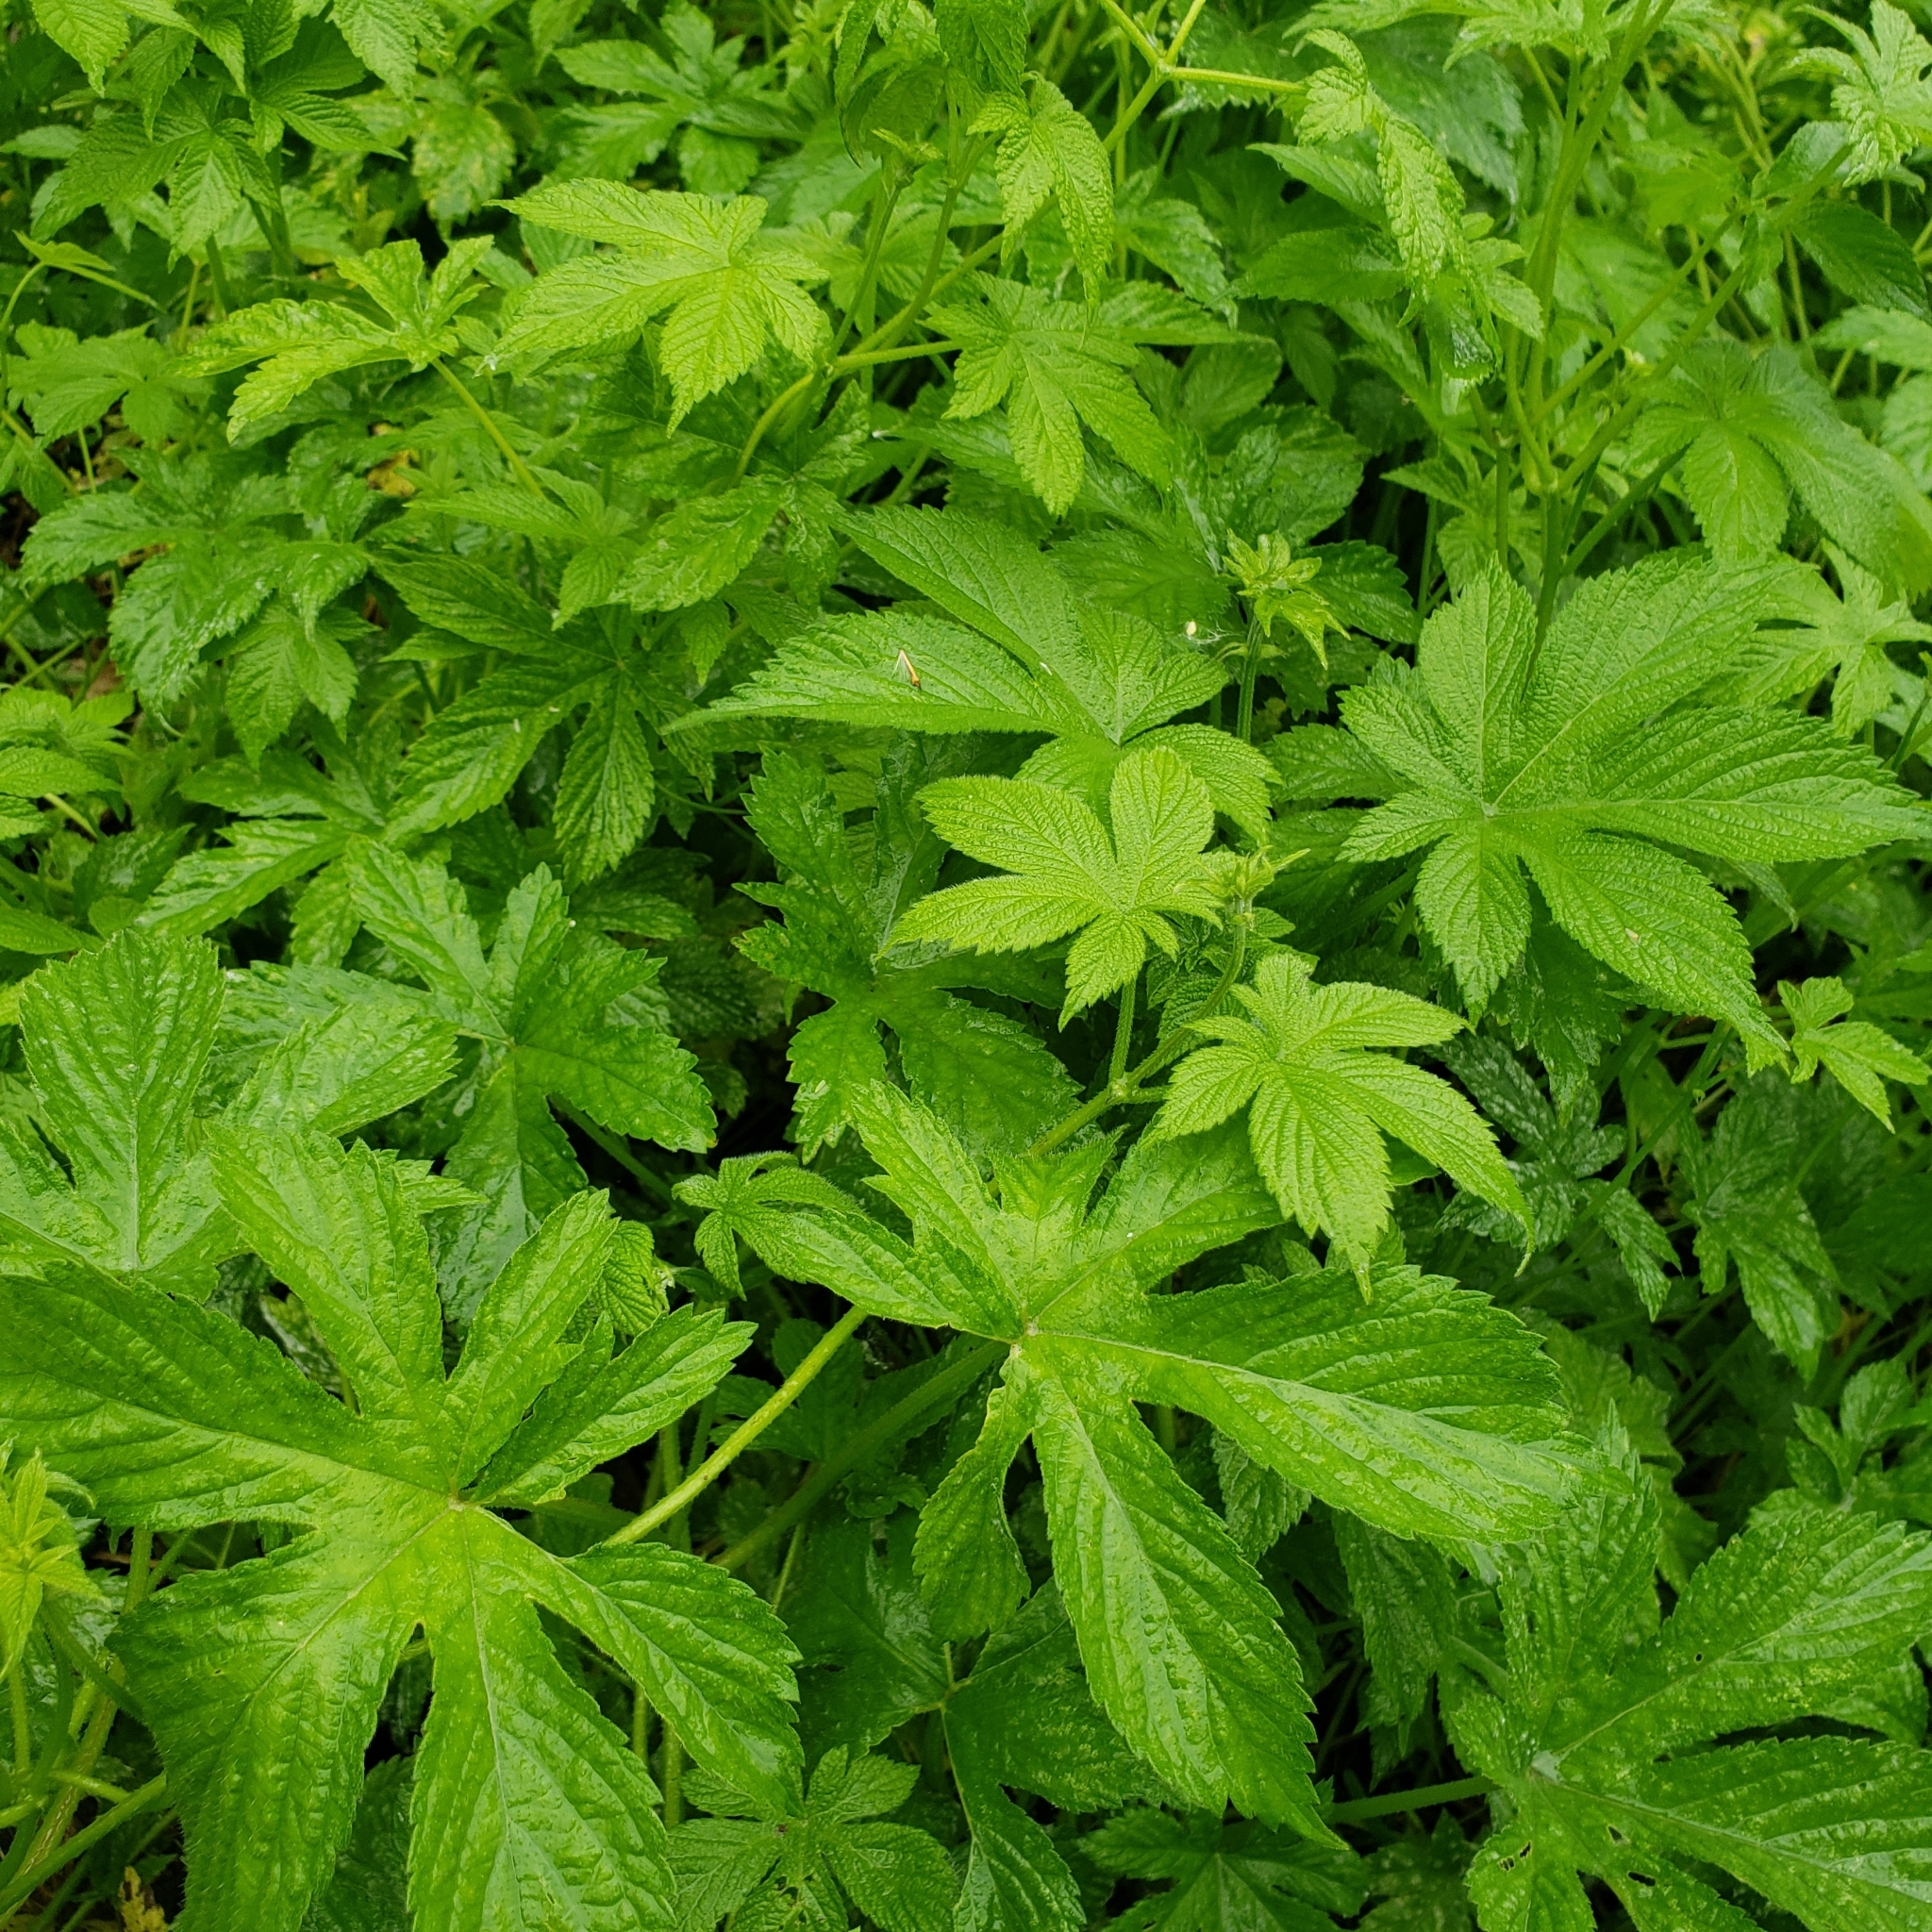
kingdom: Plantae
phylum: Tracheophyta
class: Magnoliopsida
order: Rosales
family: Cannabaceae
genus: Humulus
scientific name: Humulus scandens
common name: Japanese hop
